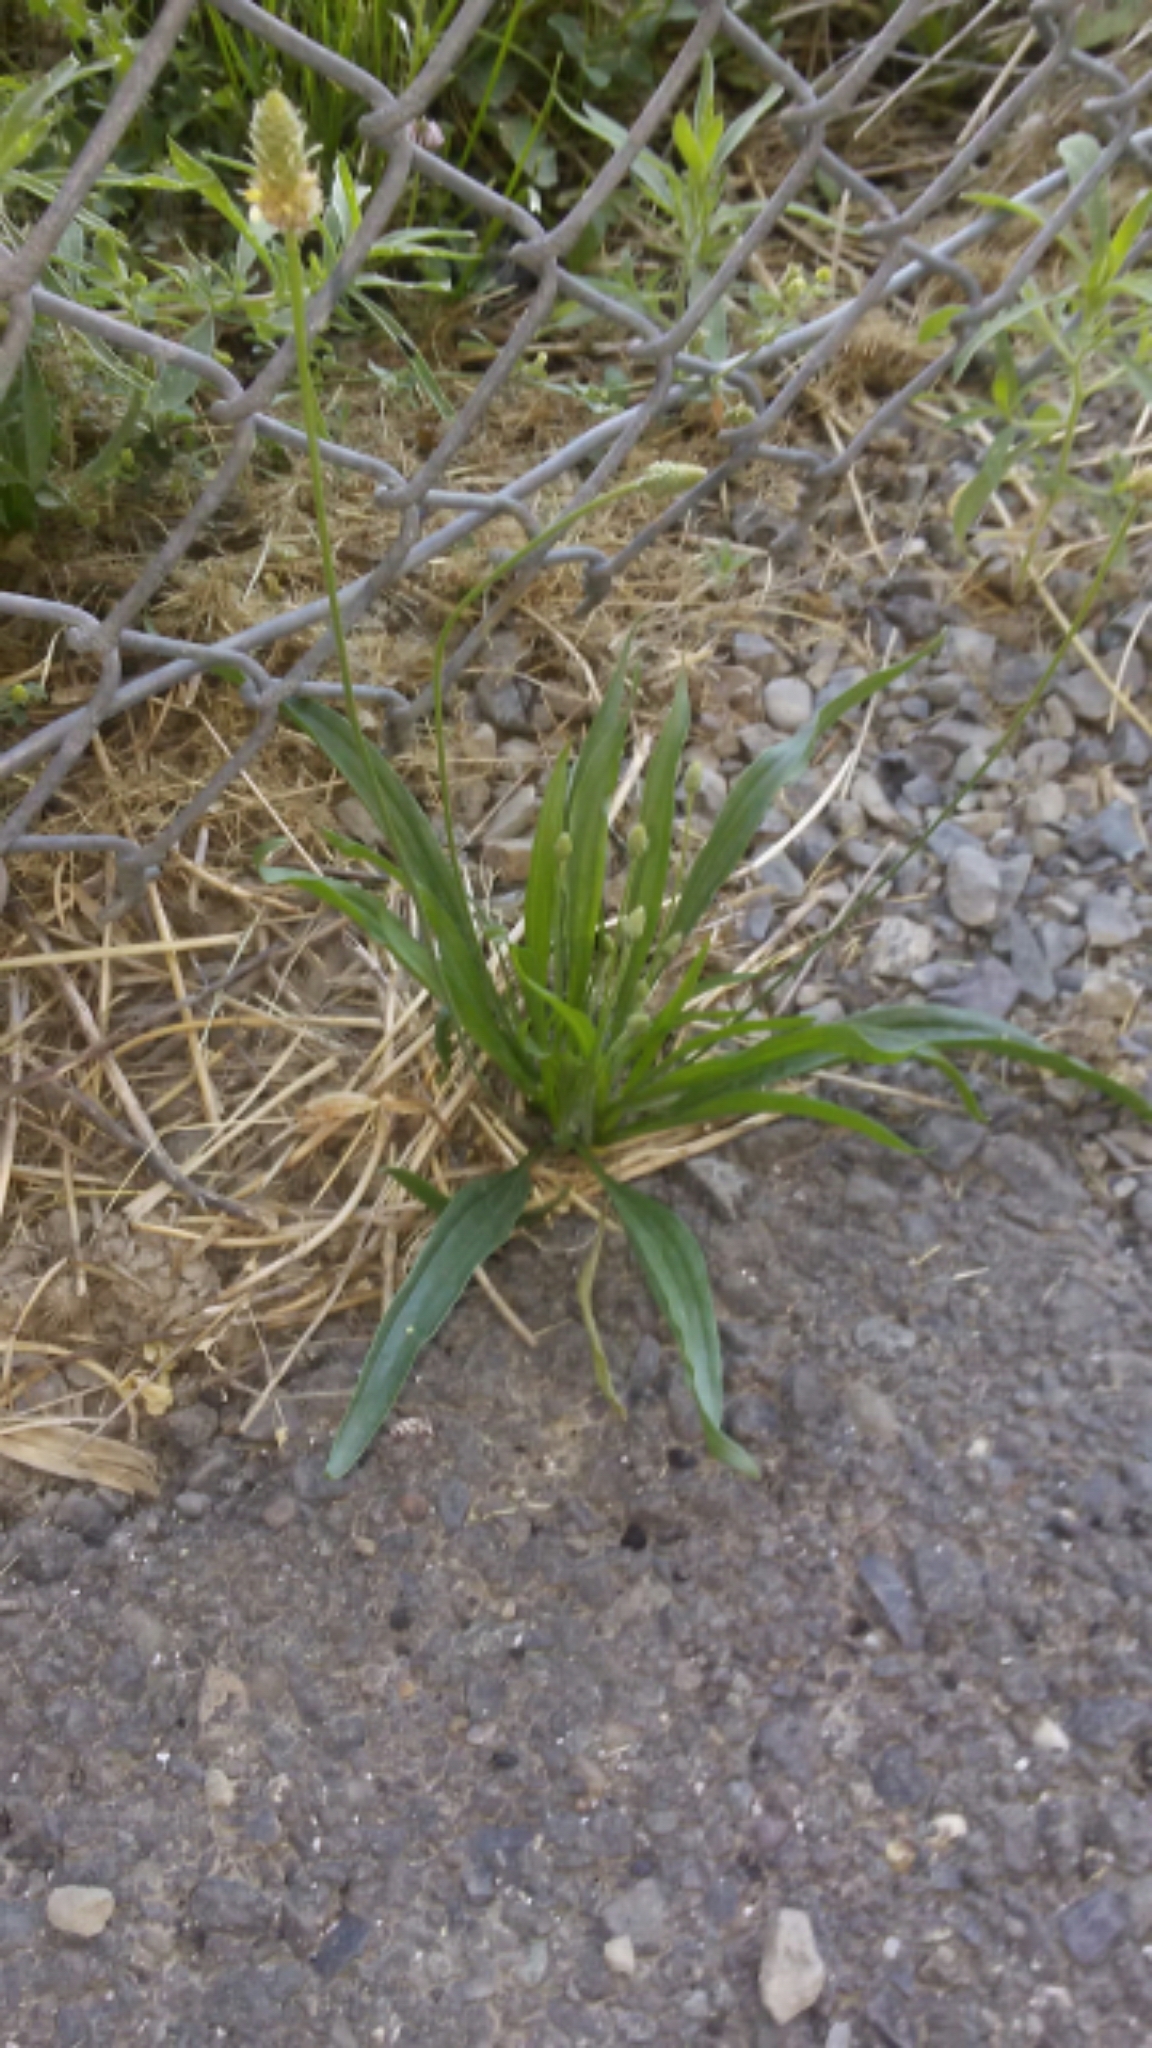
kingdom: Plantae
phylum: Tracheophyta
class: Magnoliopsida
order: Lamiales
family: Plantaginaceae
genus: Plantago
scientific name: Plantago lanceolata
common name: Ribwort plantain
